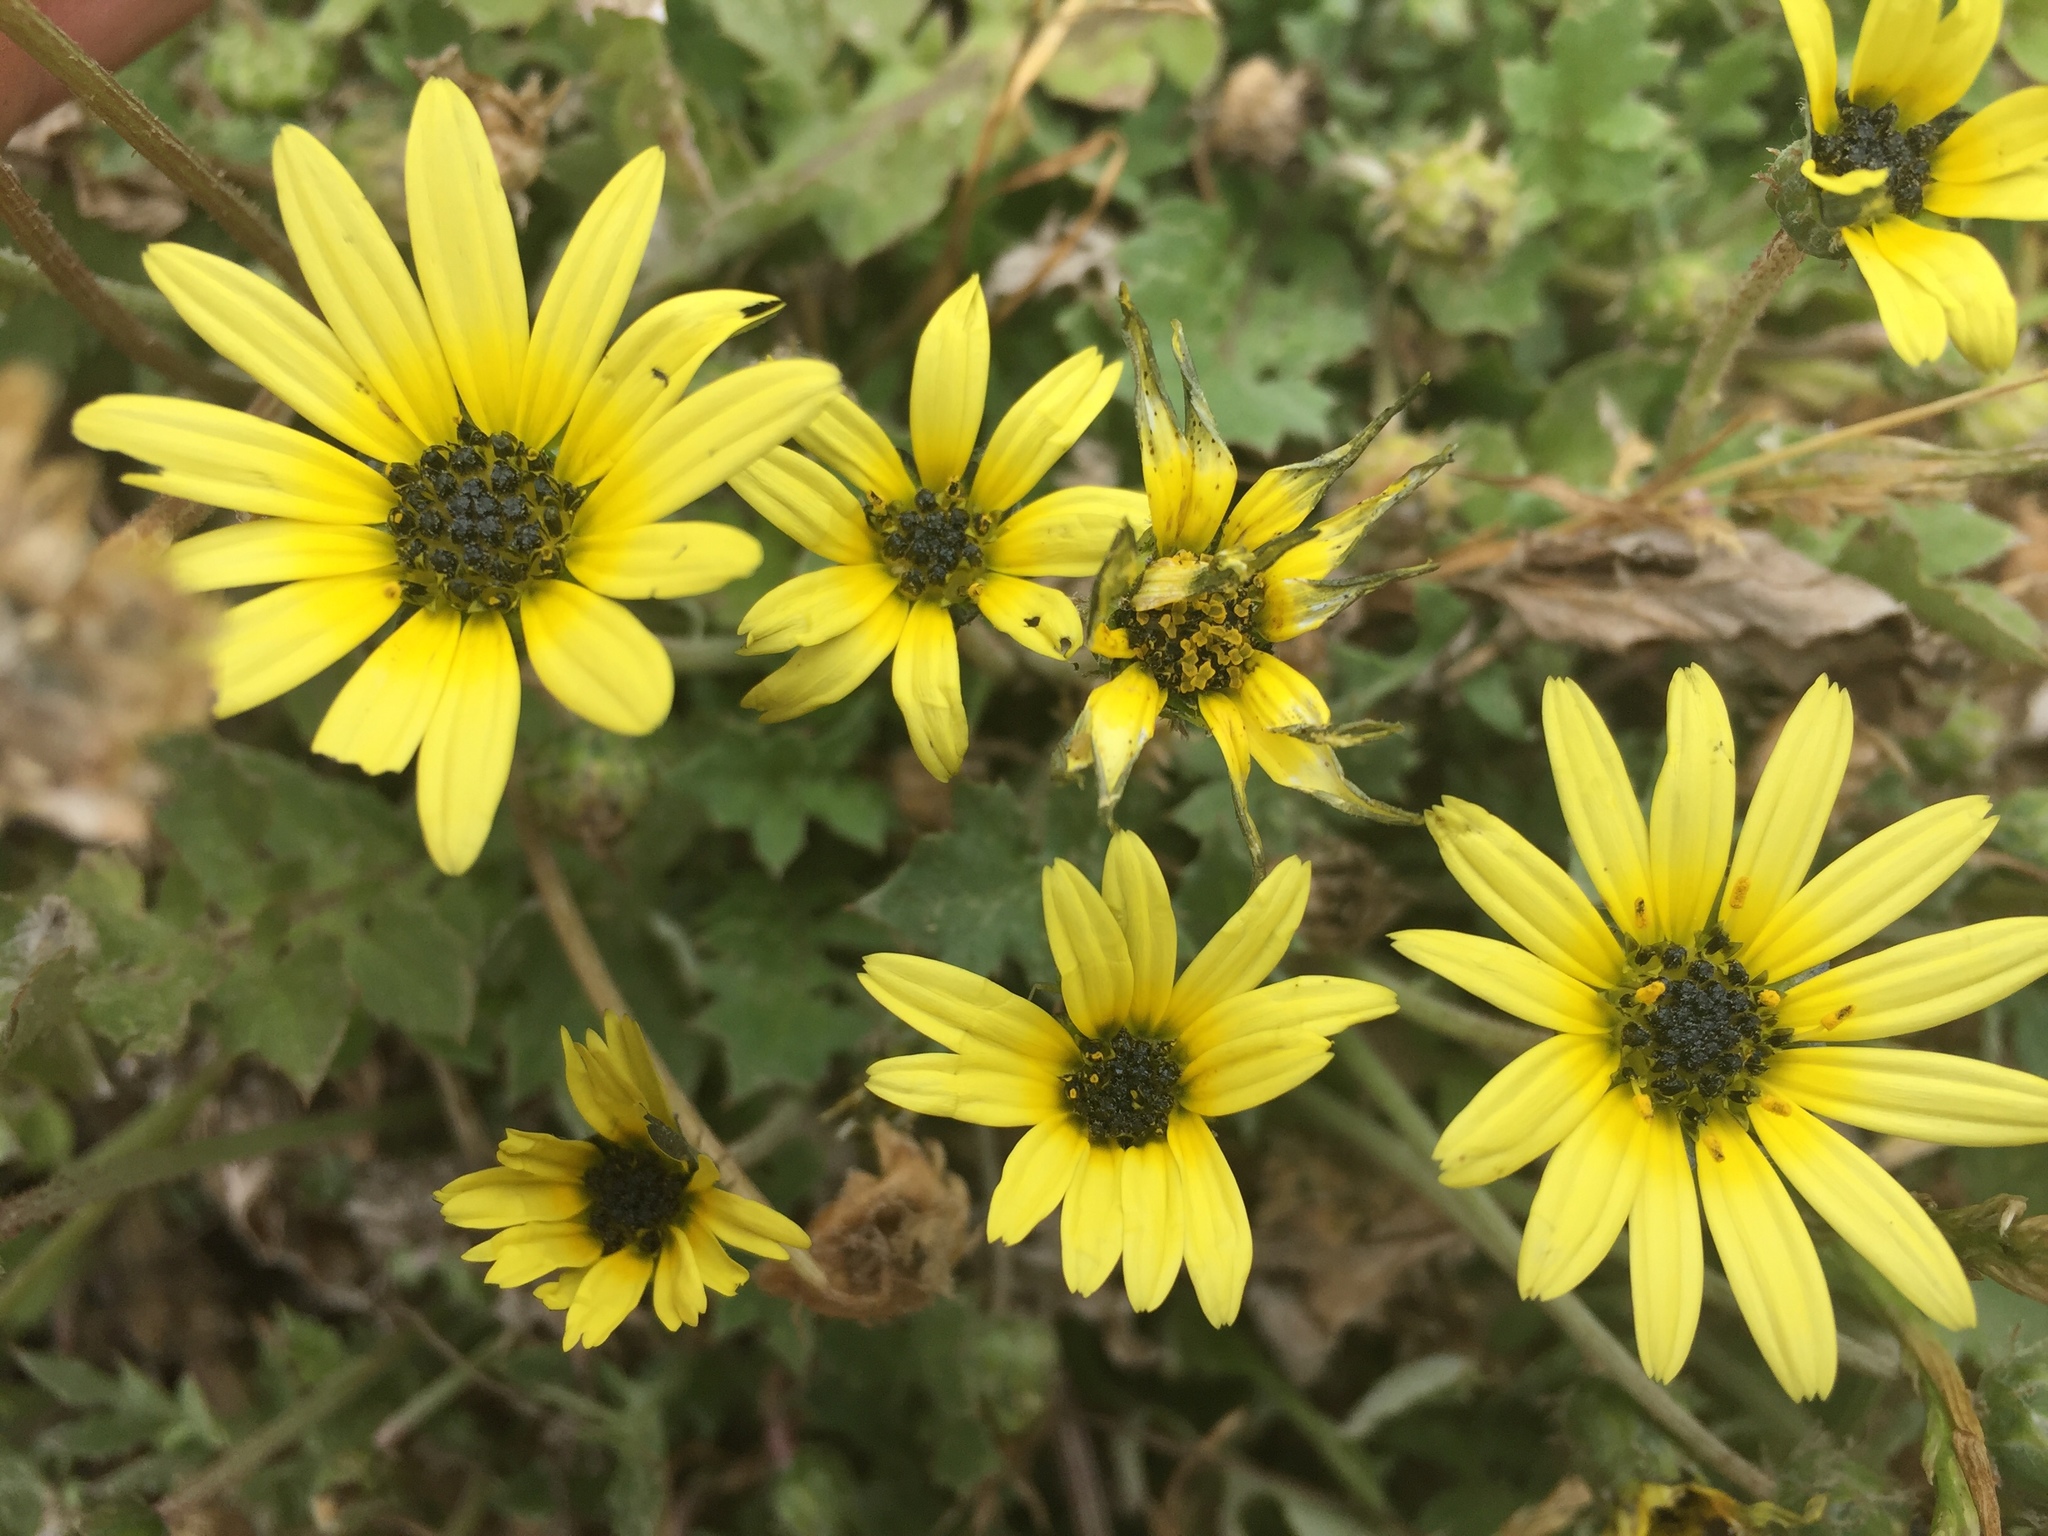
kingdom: Plantae
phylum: Tracheophyta
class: Magnoliopsida
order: Asterales
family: Asteraceae
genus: Arctotheca
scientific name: Arctotheca calendula
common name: Capeweed
